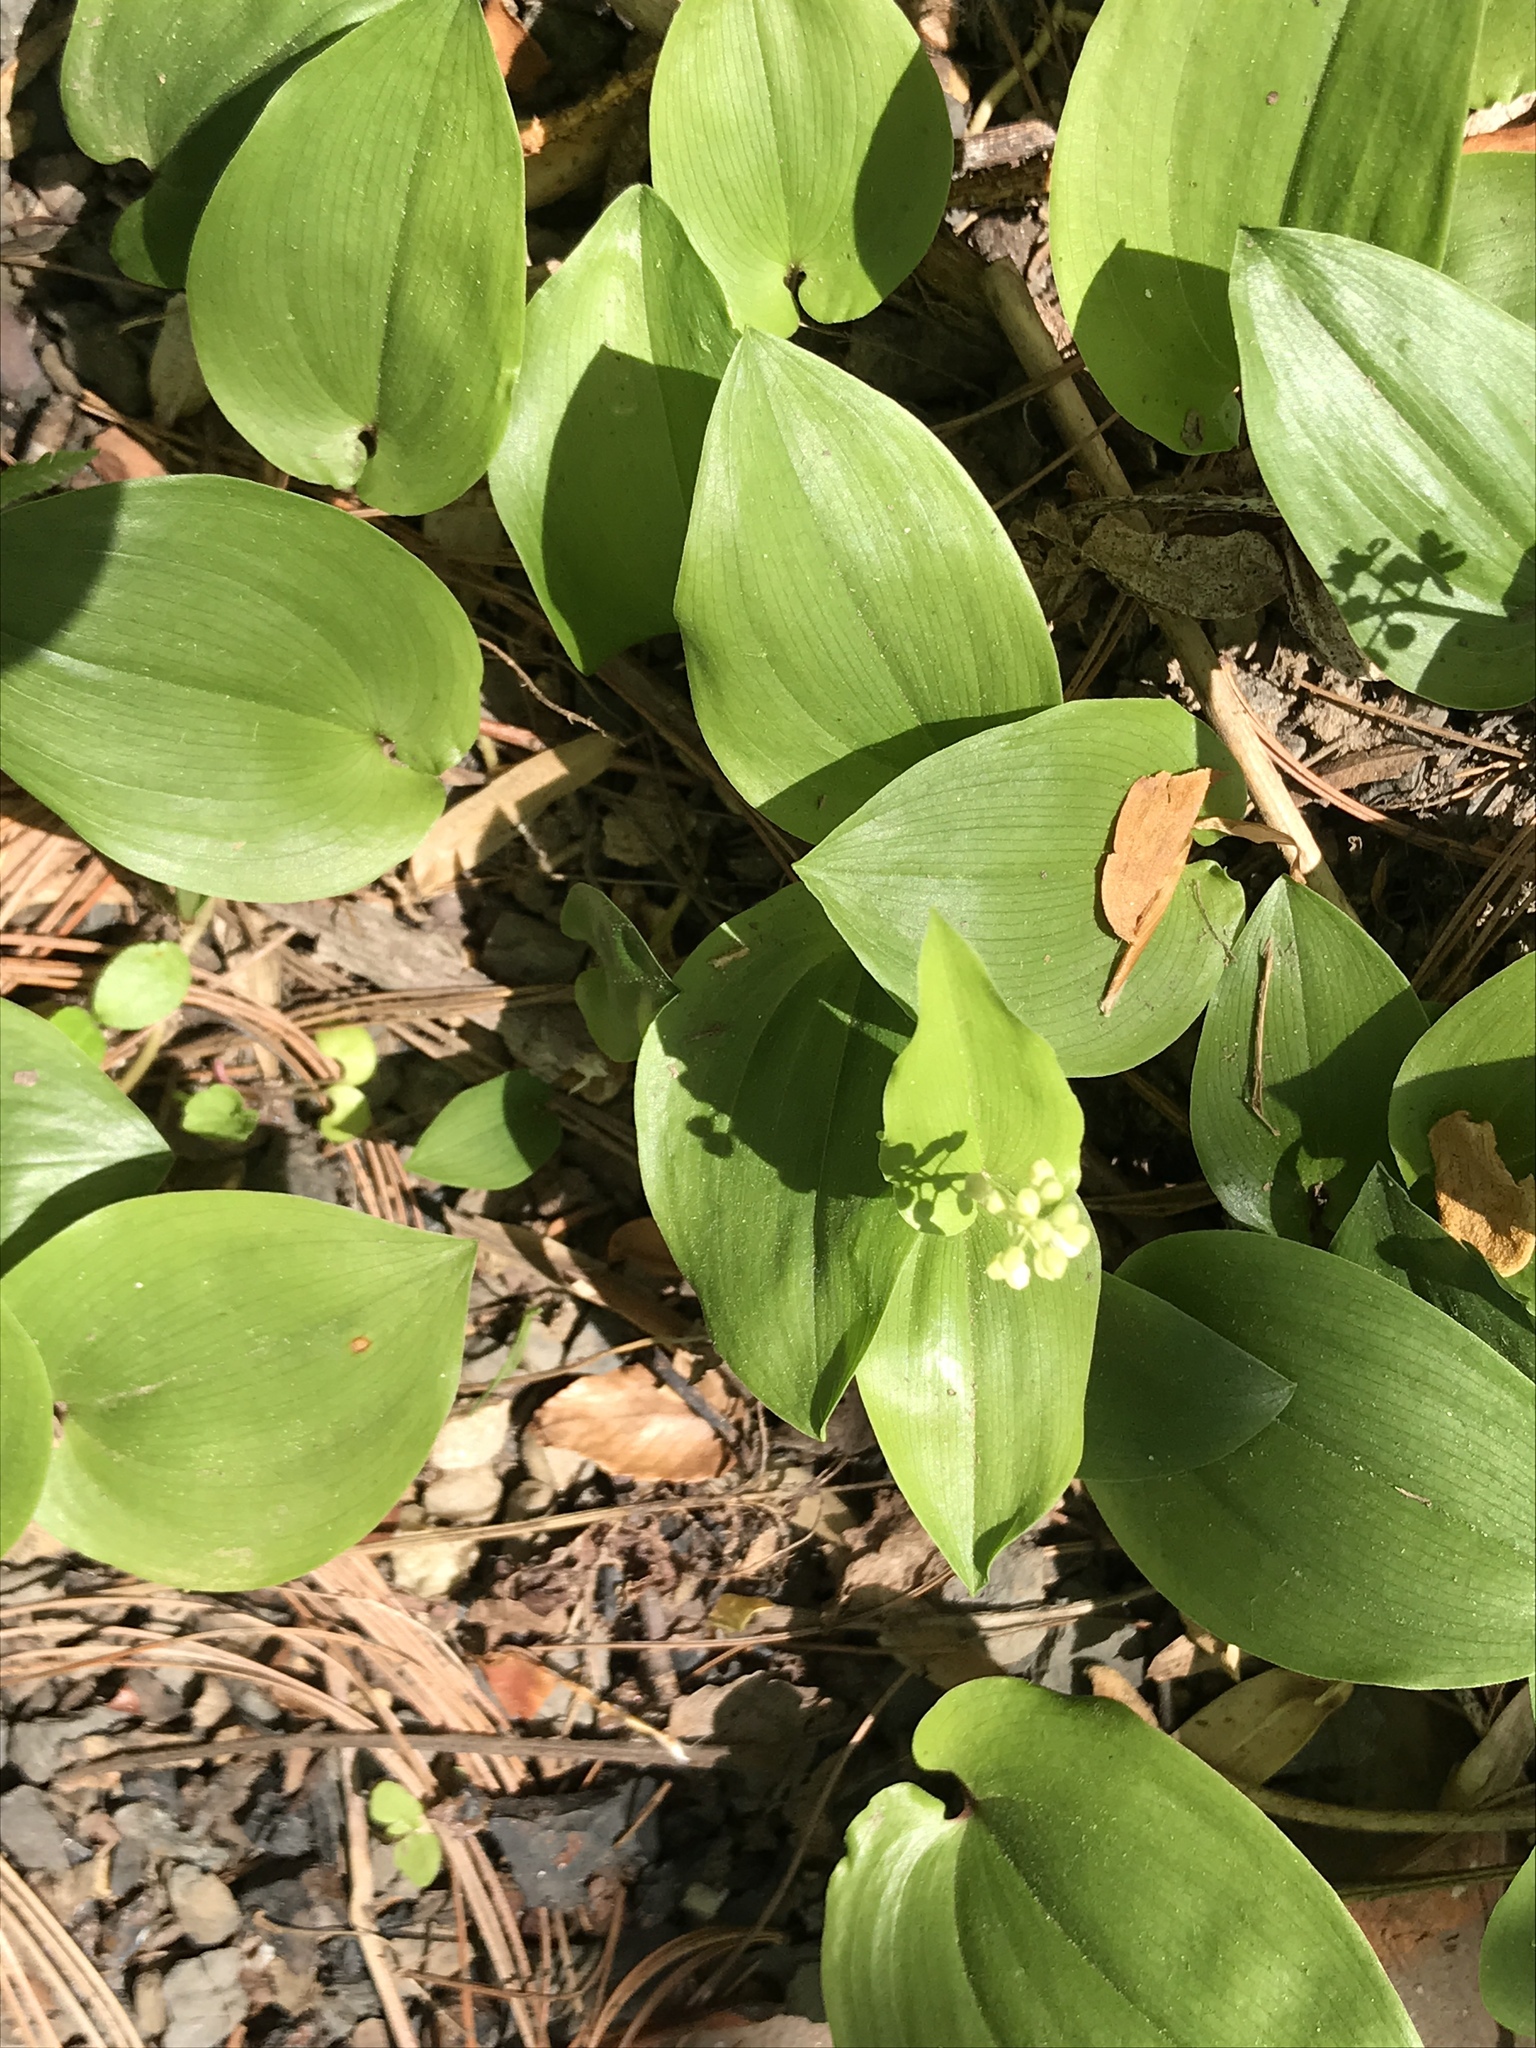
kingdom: Plantae
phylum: Tracheophyta
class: Liliopsida
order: Asparagales
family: Asparagaceae
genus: Maianthemum
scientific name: Maianthemum canadense
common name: False lily-of-the-valley
